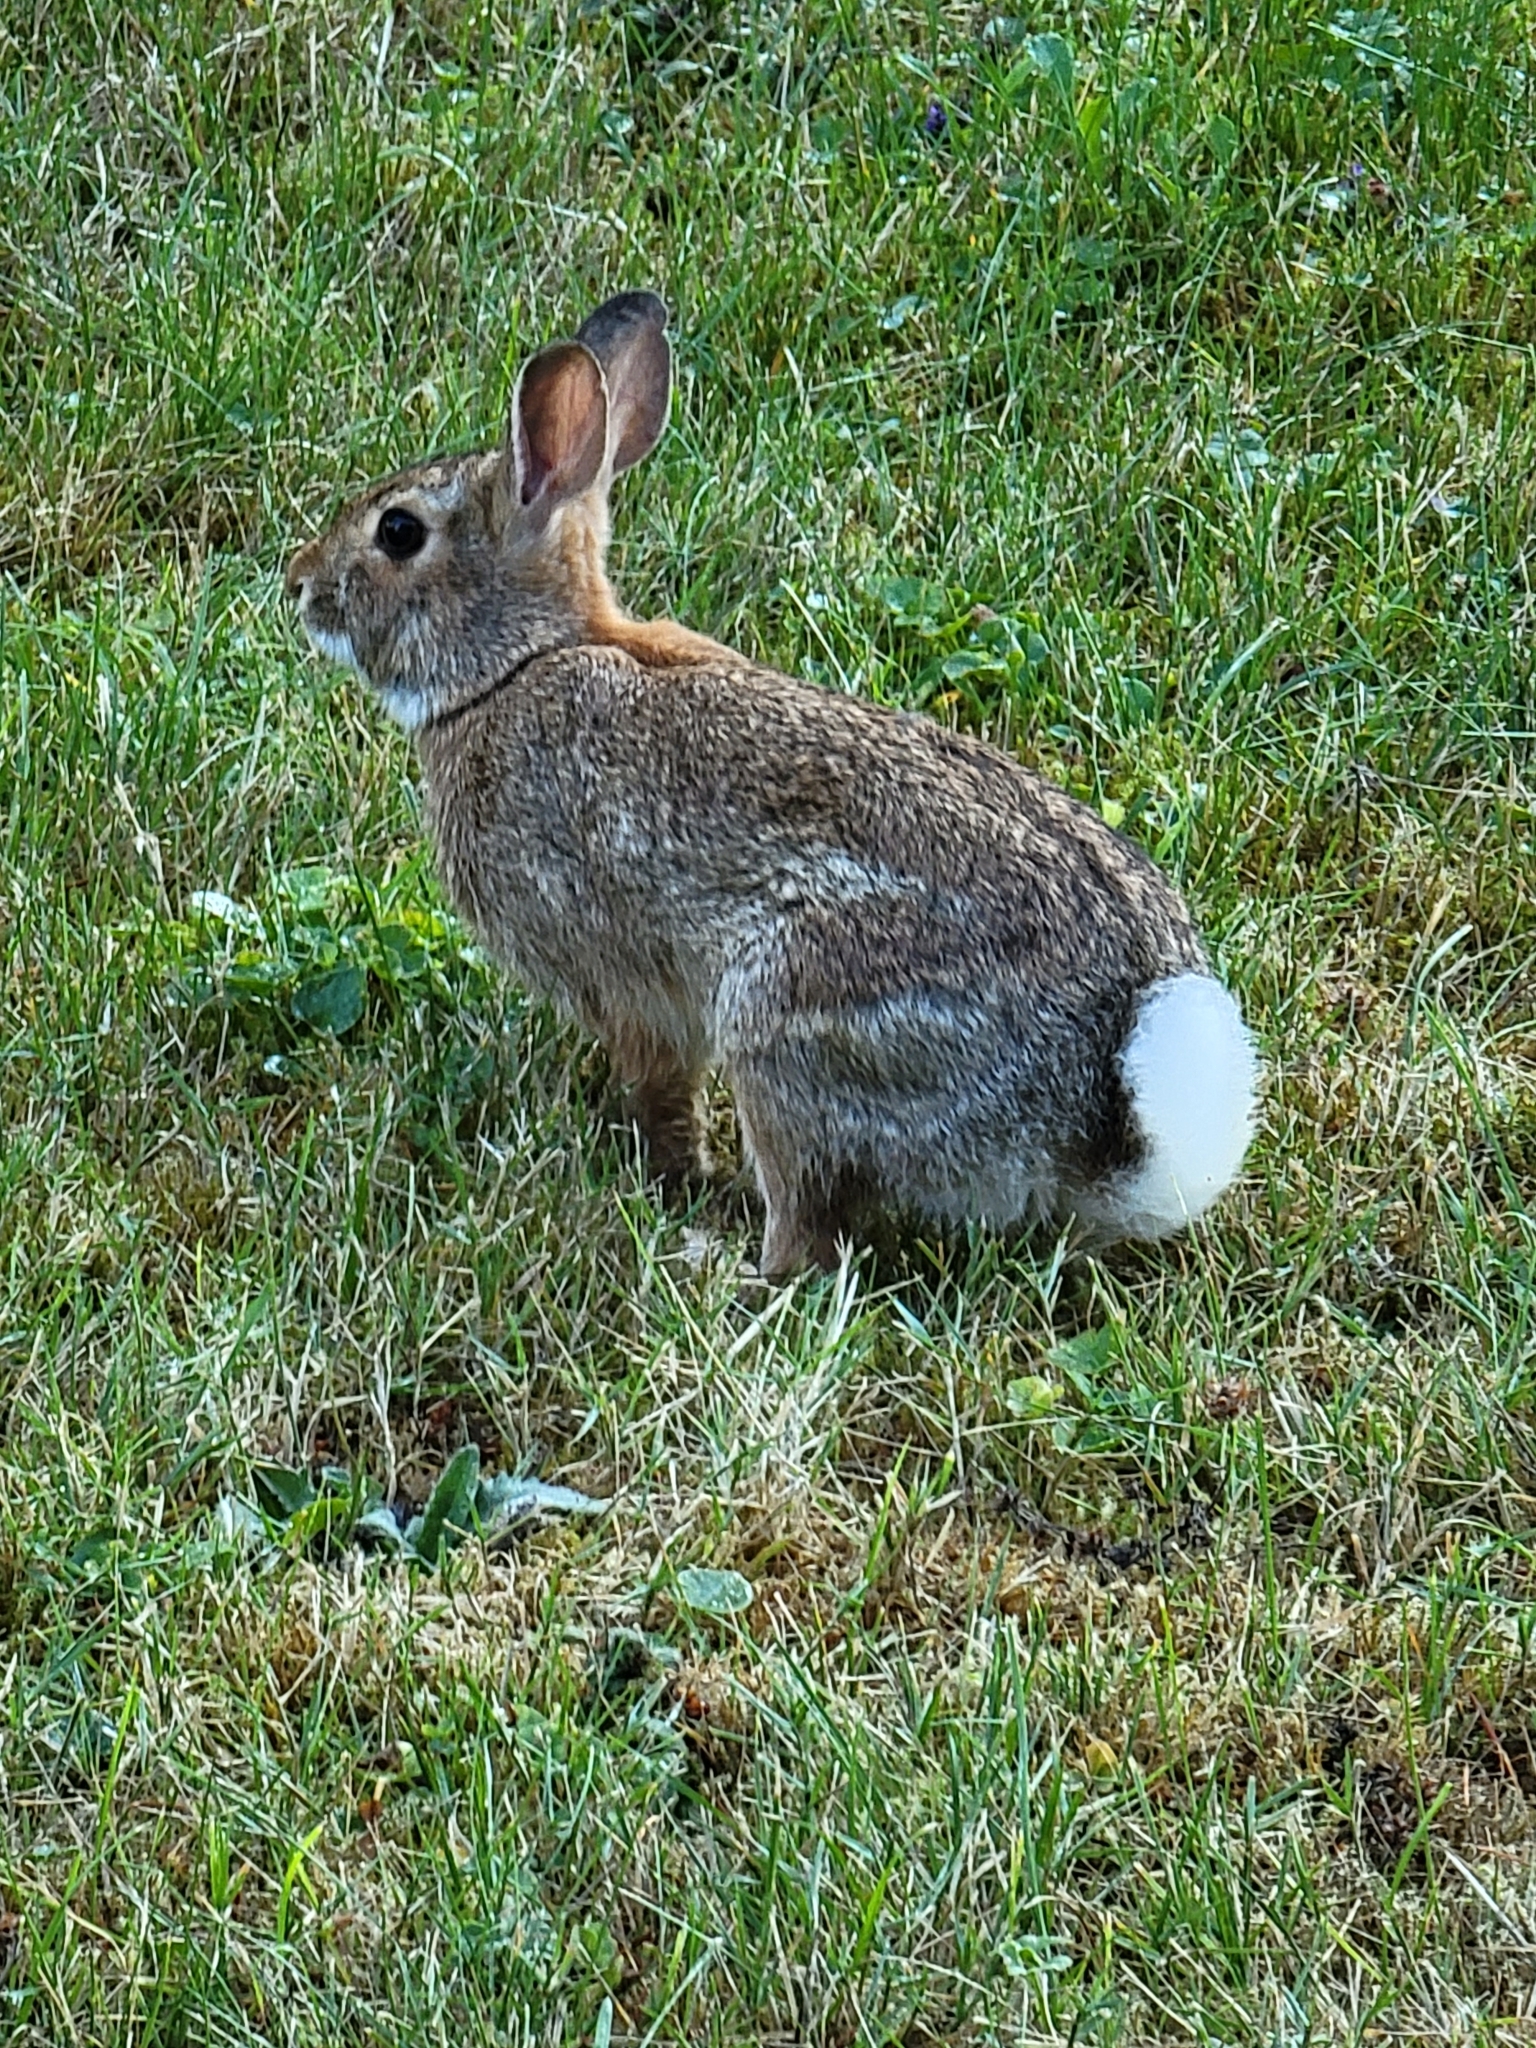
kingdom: Animalia
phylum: Chordata
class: Mammalia
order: Lagomorpha
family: Leporidae
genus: Sylvilagus
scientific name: Sylvilagus floridanus
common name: Eastern cottontail
